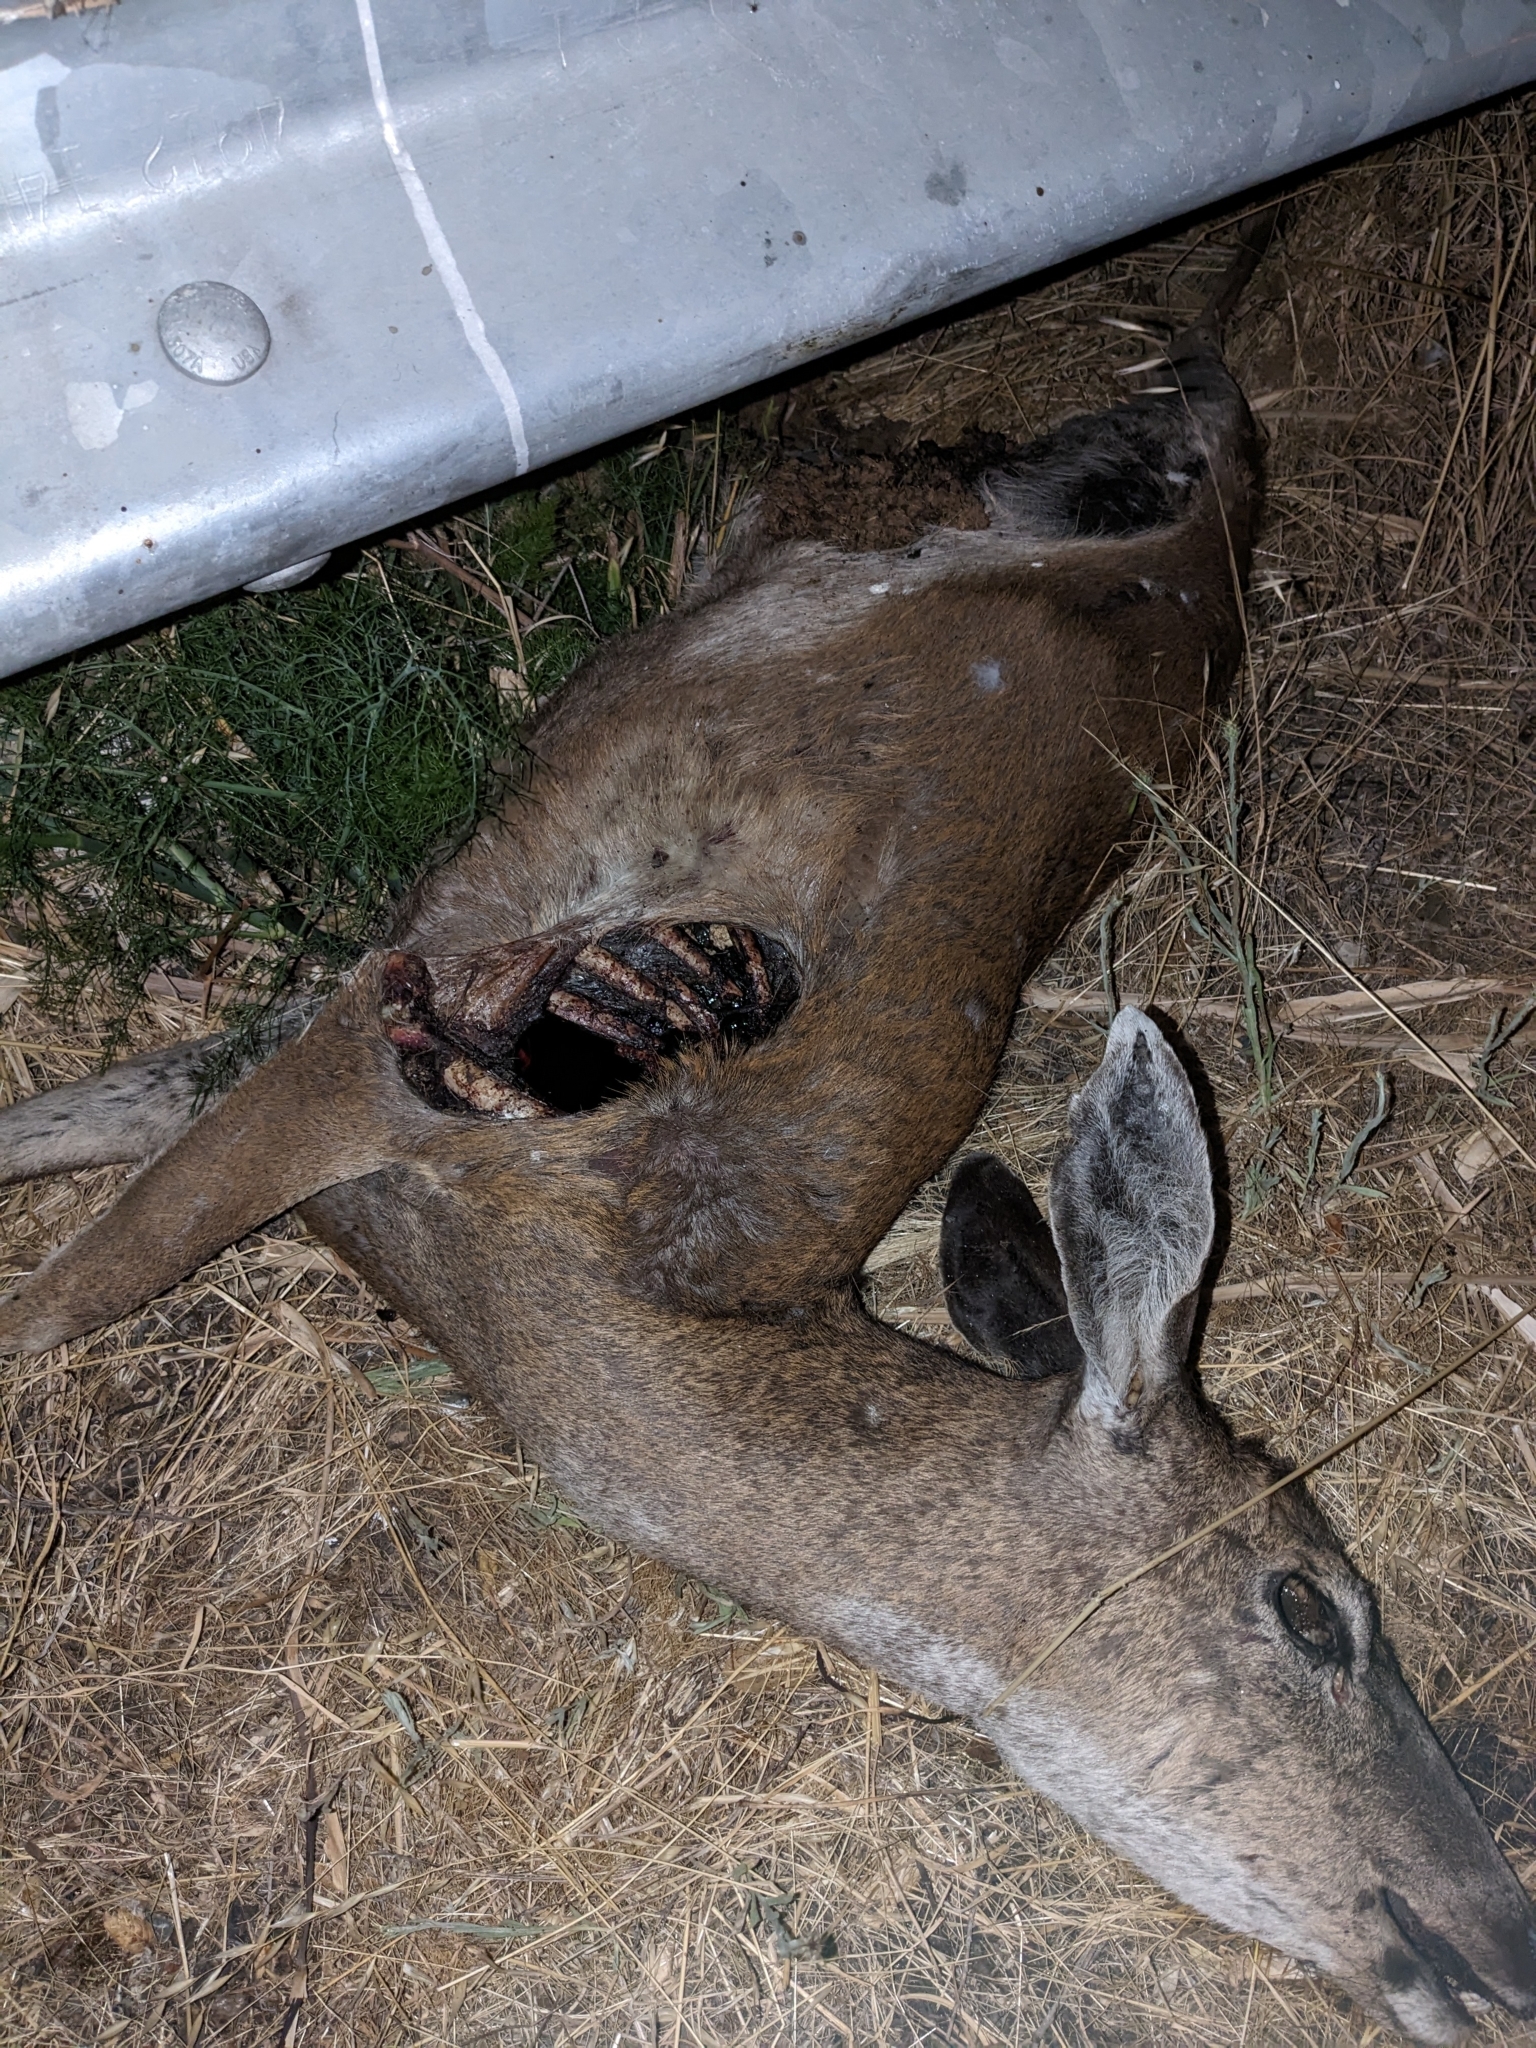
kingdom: Animalia
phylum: Chordata
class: Mammalia
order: Artiodactyla
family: Cervidae
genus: Odocoileus
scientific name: Odocoileus hemionus
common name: Mule deer
